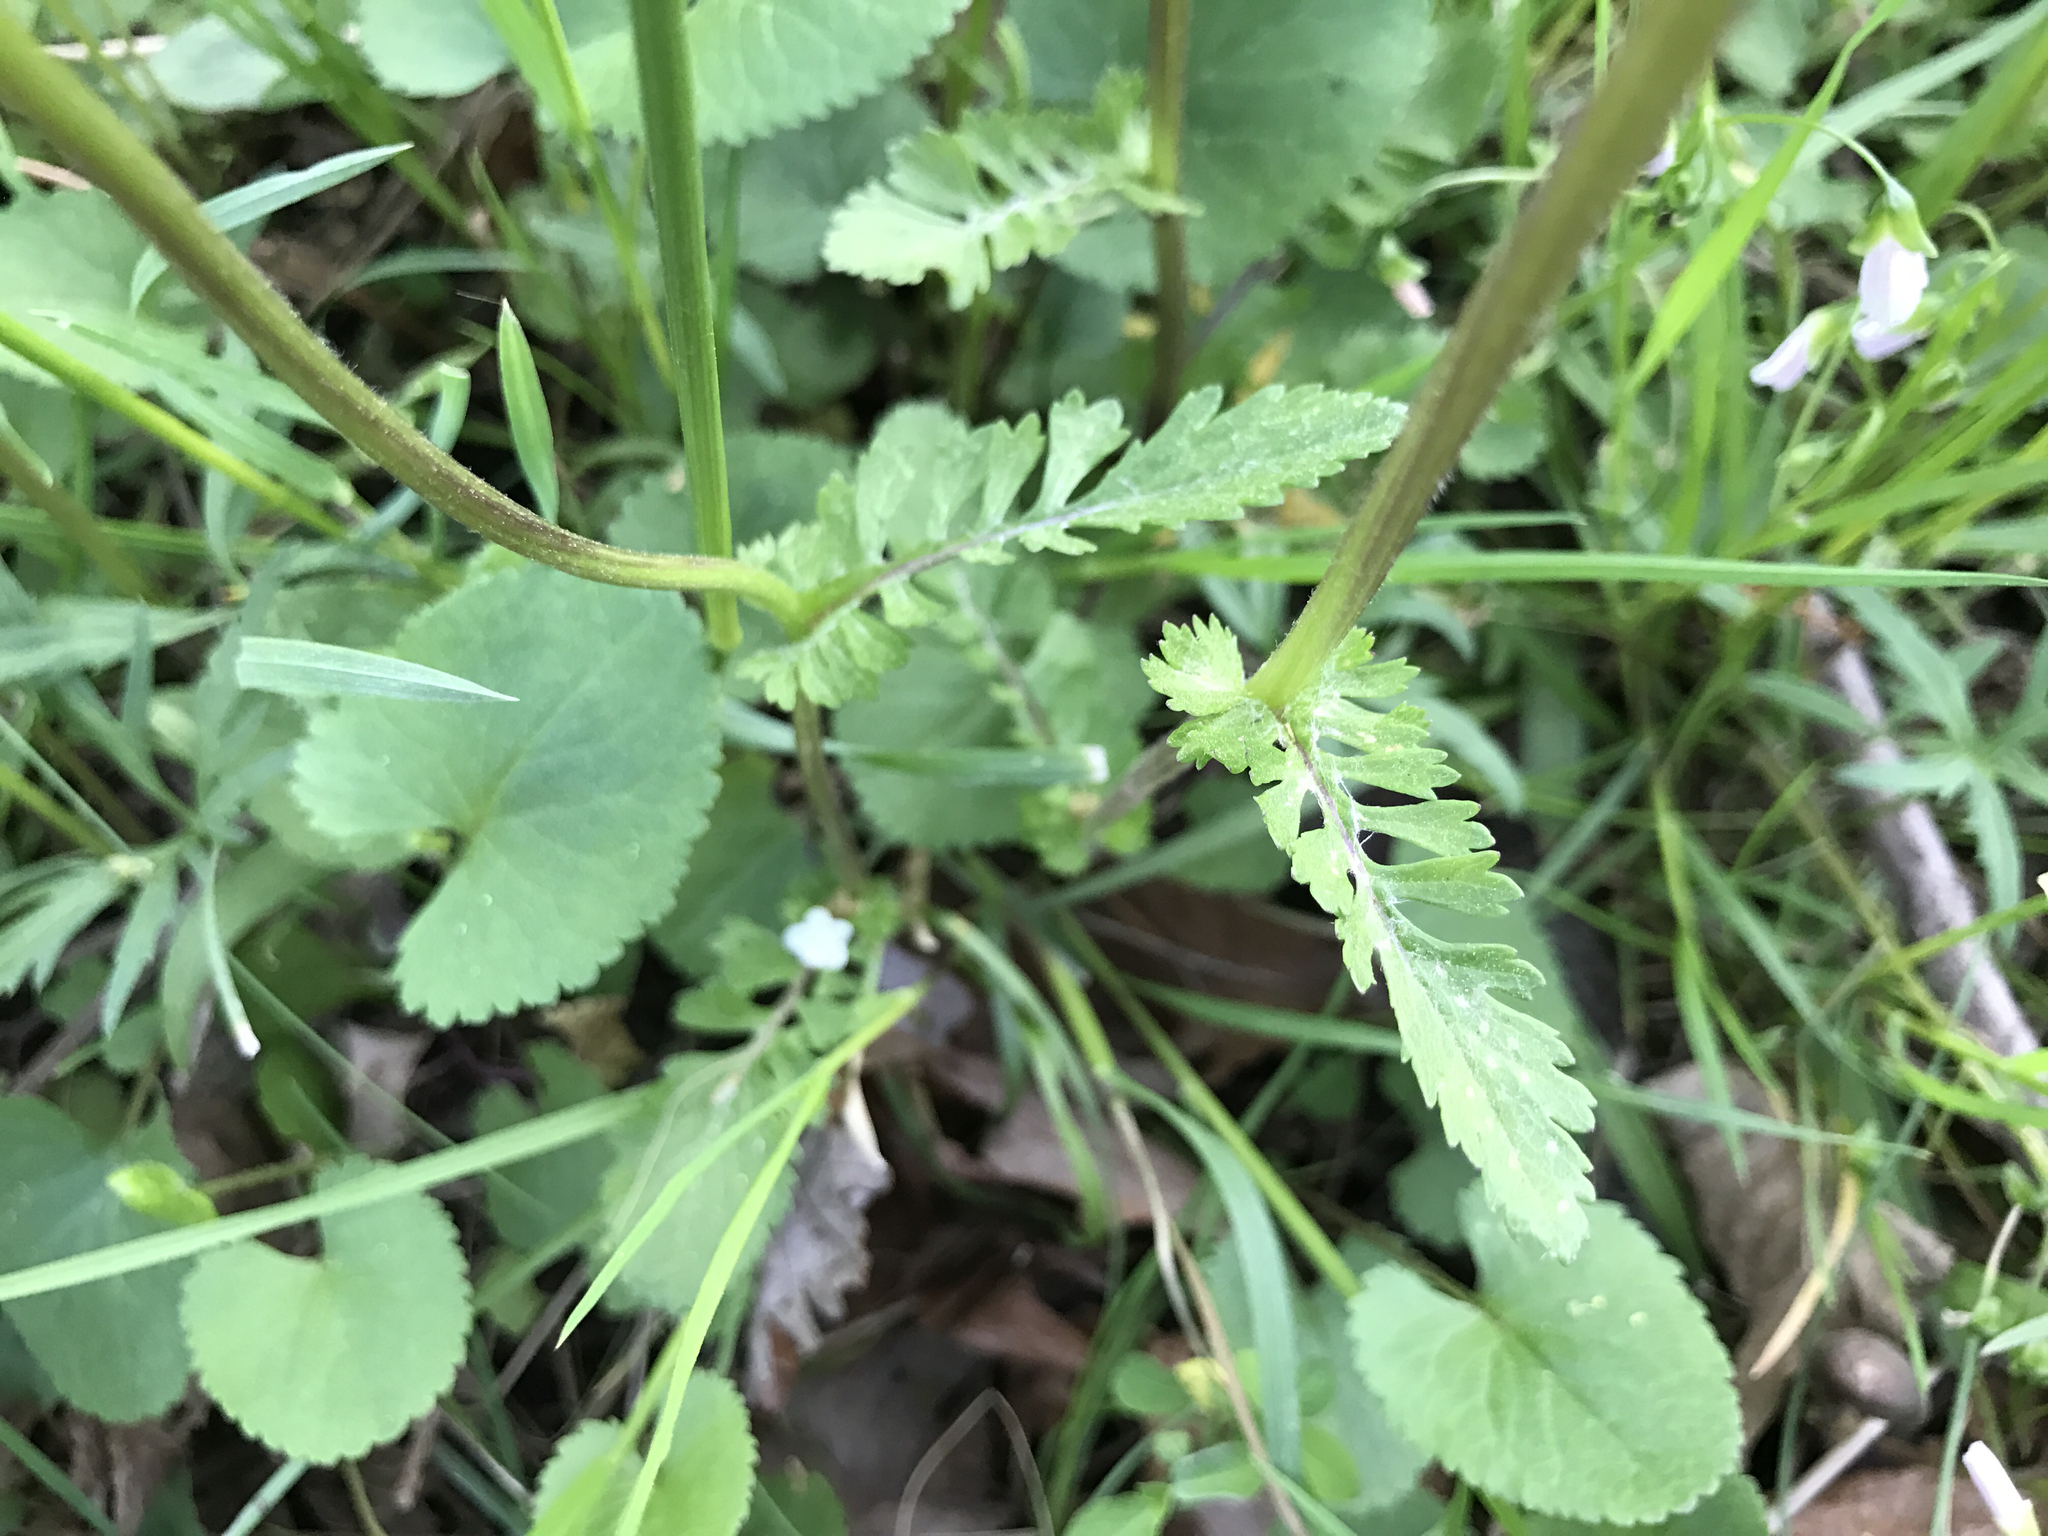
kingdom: Plantae
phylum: Tracheophyta
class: Magnoliopsida
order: Asterales
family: Asteraceae
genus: Packera
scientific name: Packera aurea
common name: Golden groundsel
